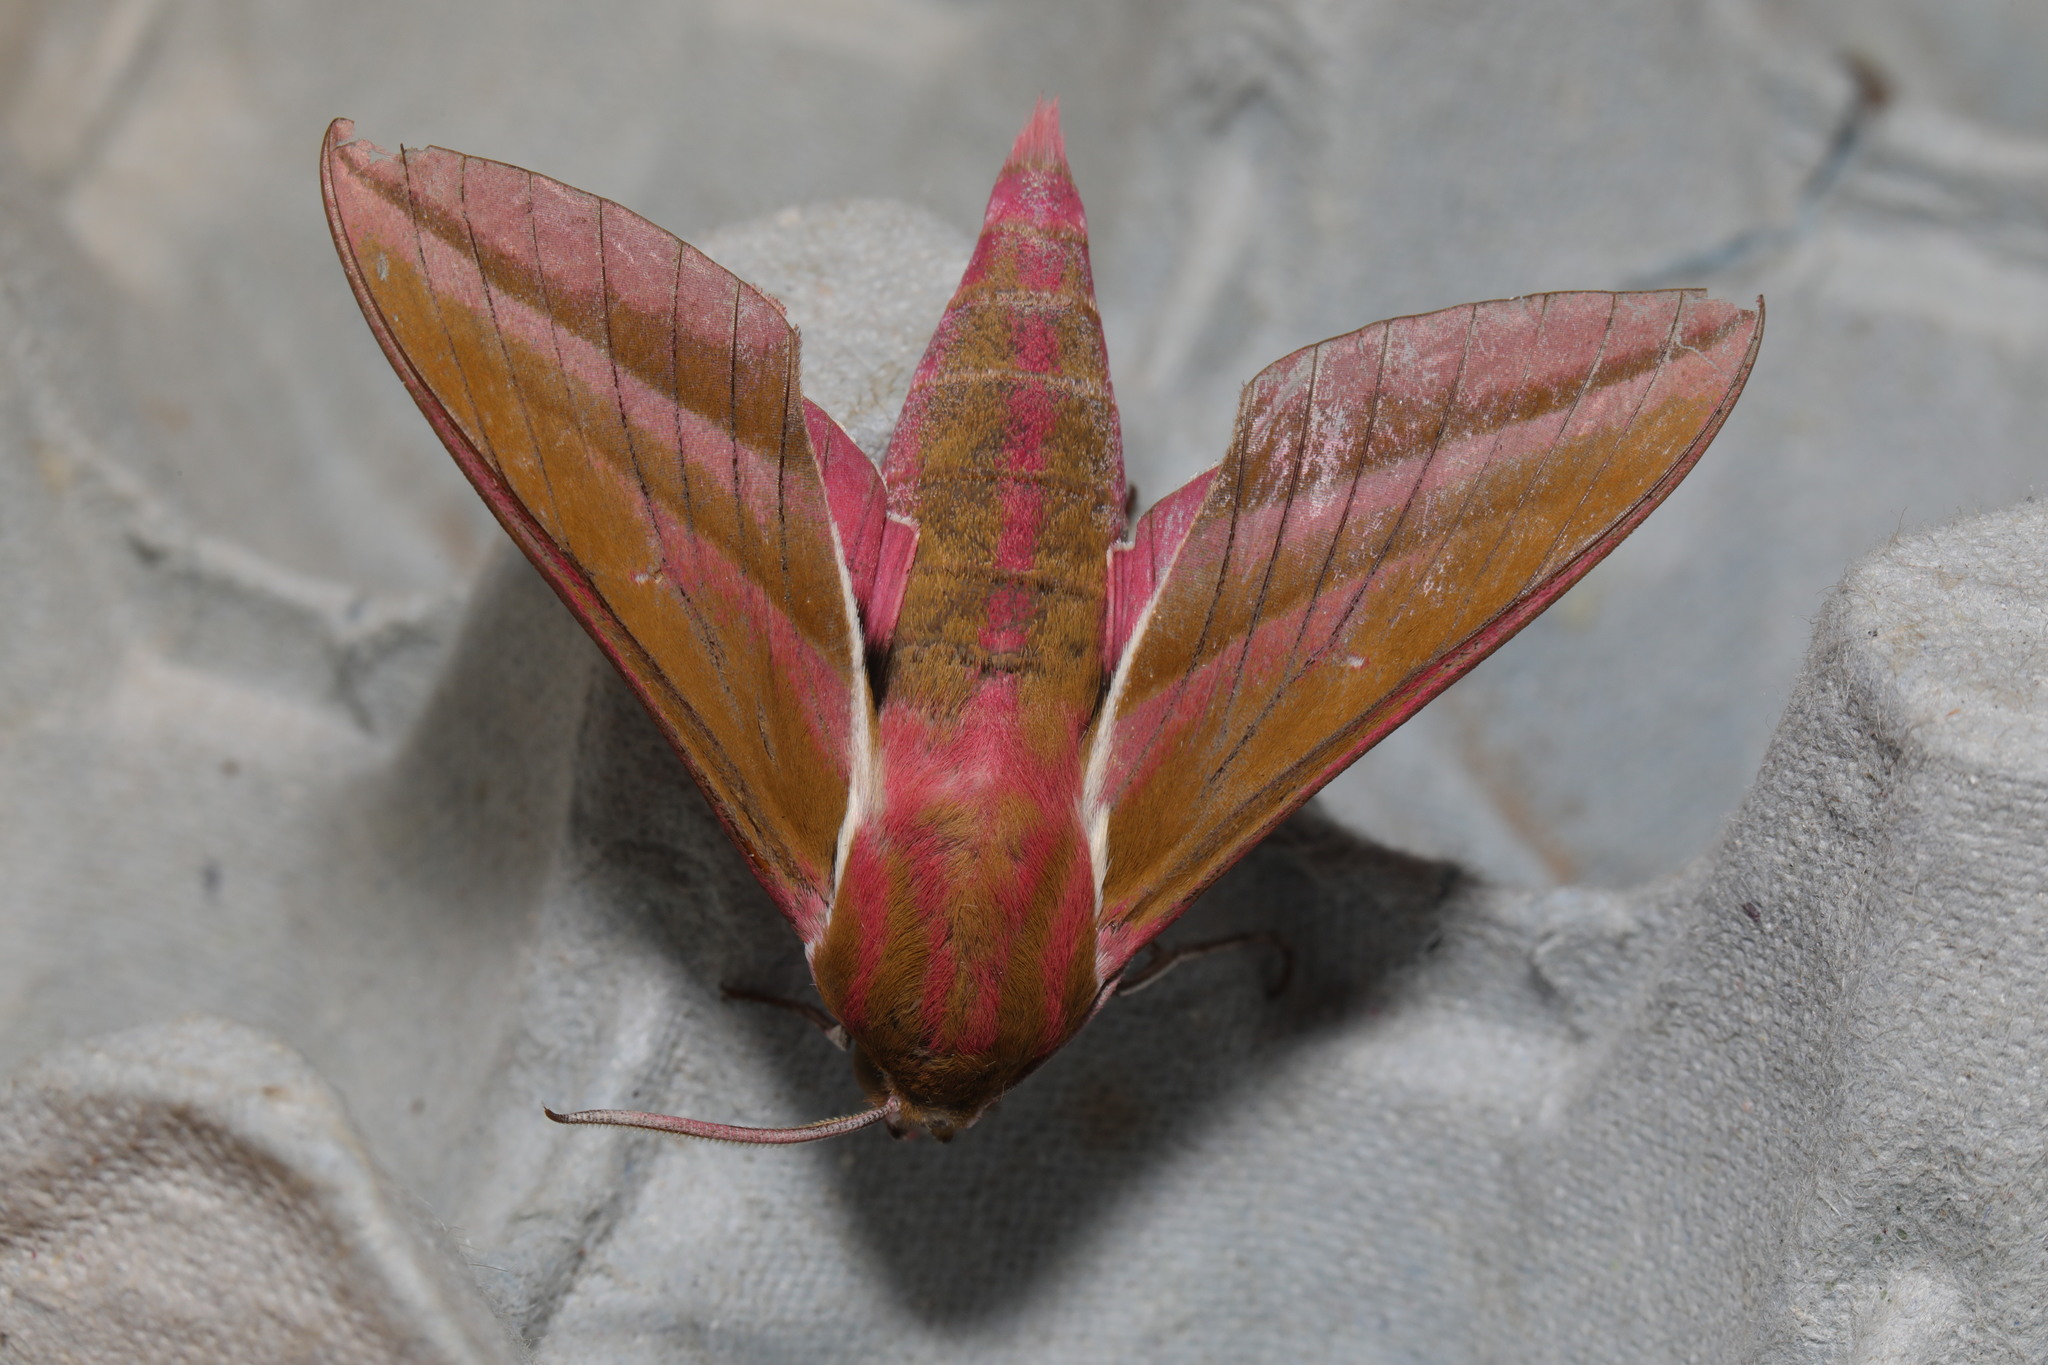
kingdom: Animalia
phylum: Arthropoda
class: Insecta
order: Lepidoptera
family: Sphingidae
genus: Deilephila
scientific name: Deilephila elpenor
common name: Elephant hawk-moth
